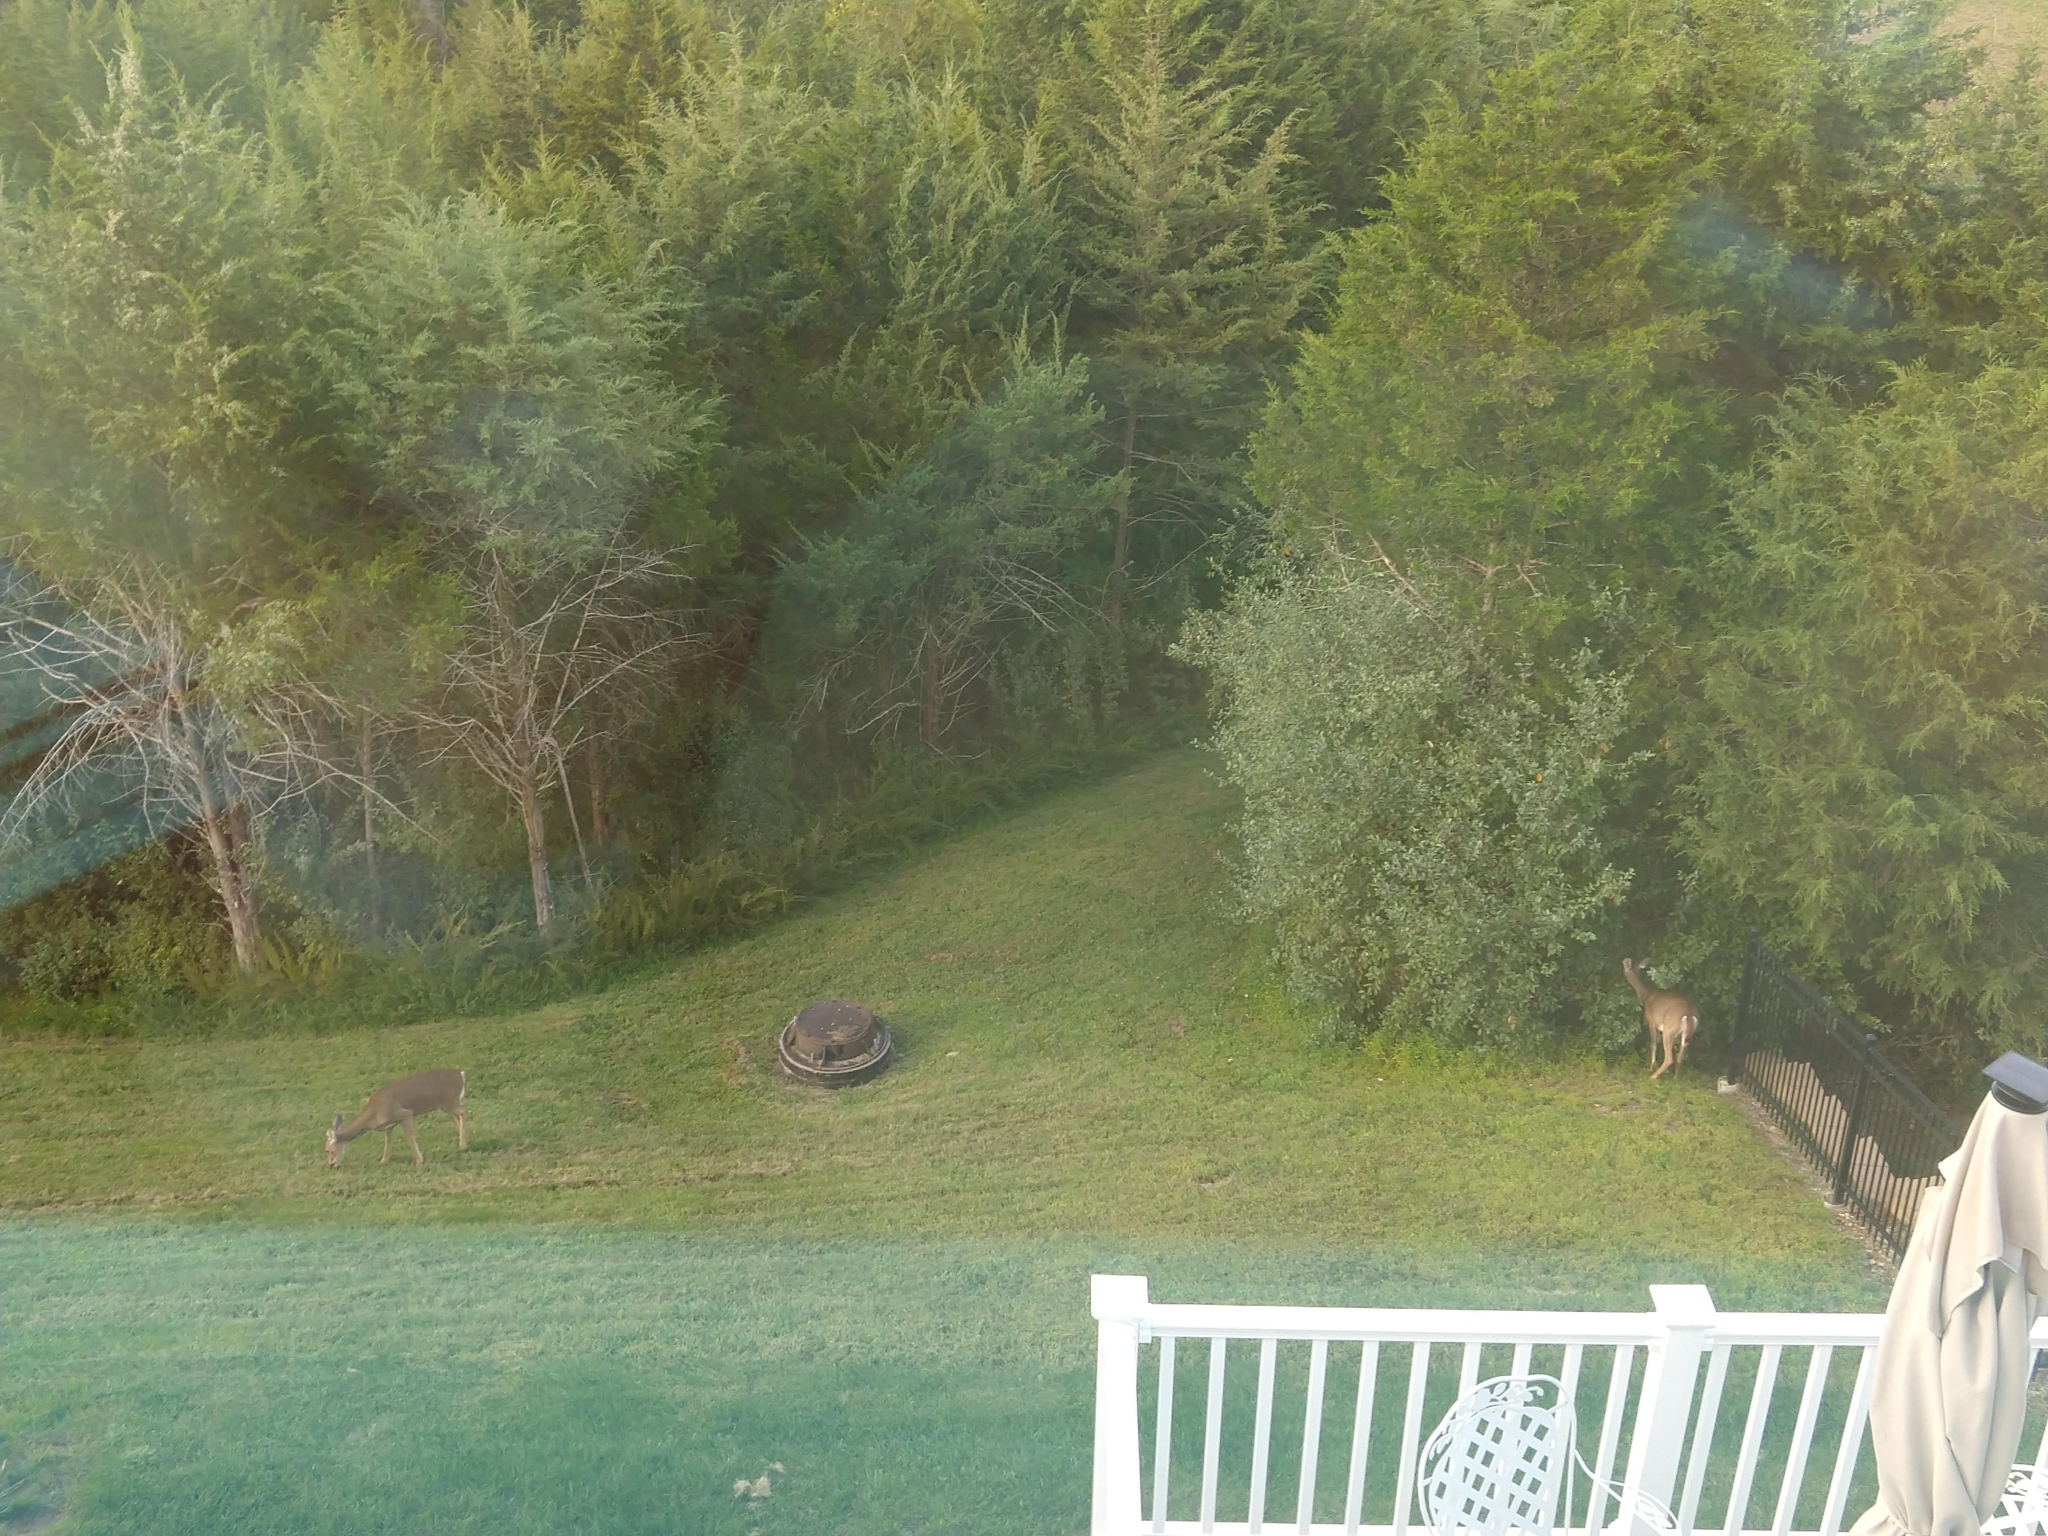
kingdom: Animalia
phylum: Chordata
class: Mammalia
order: Artiodactyla
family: Cervidae
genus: Odocoileus
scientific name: Odocoileus virginianus
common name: White-tailed deer
